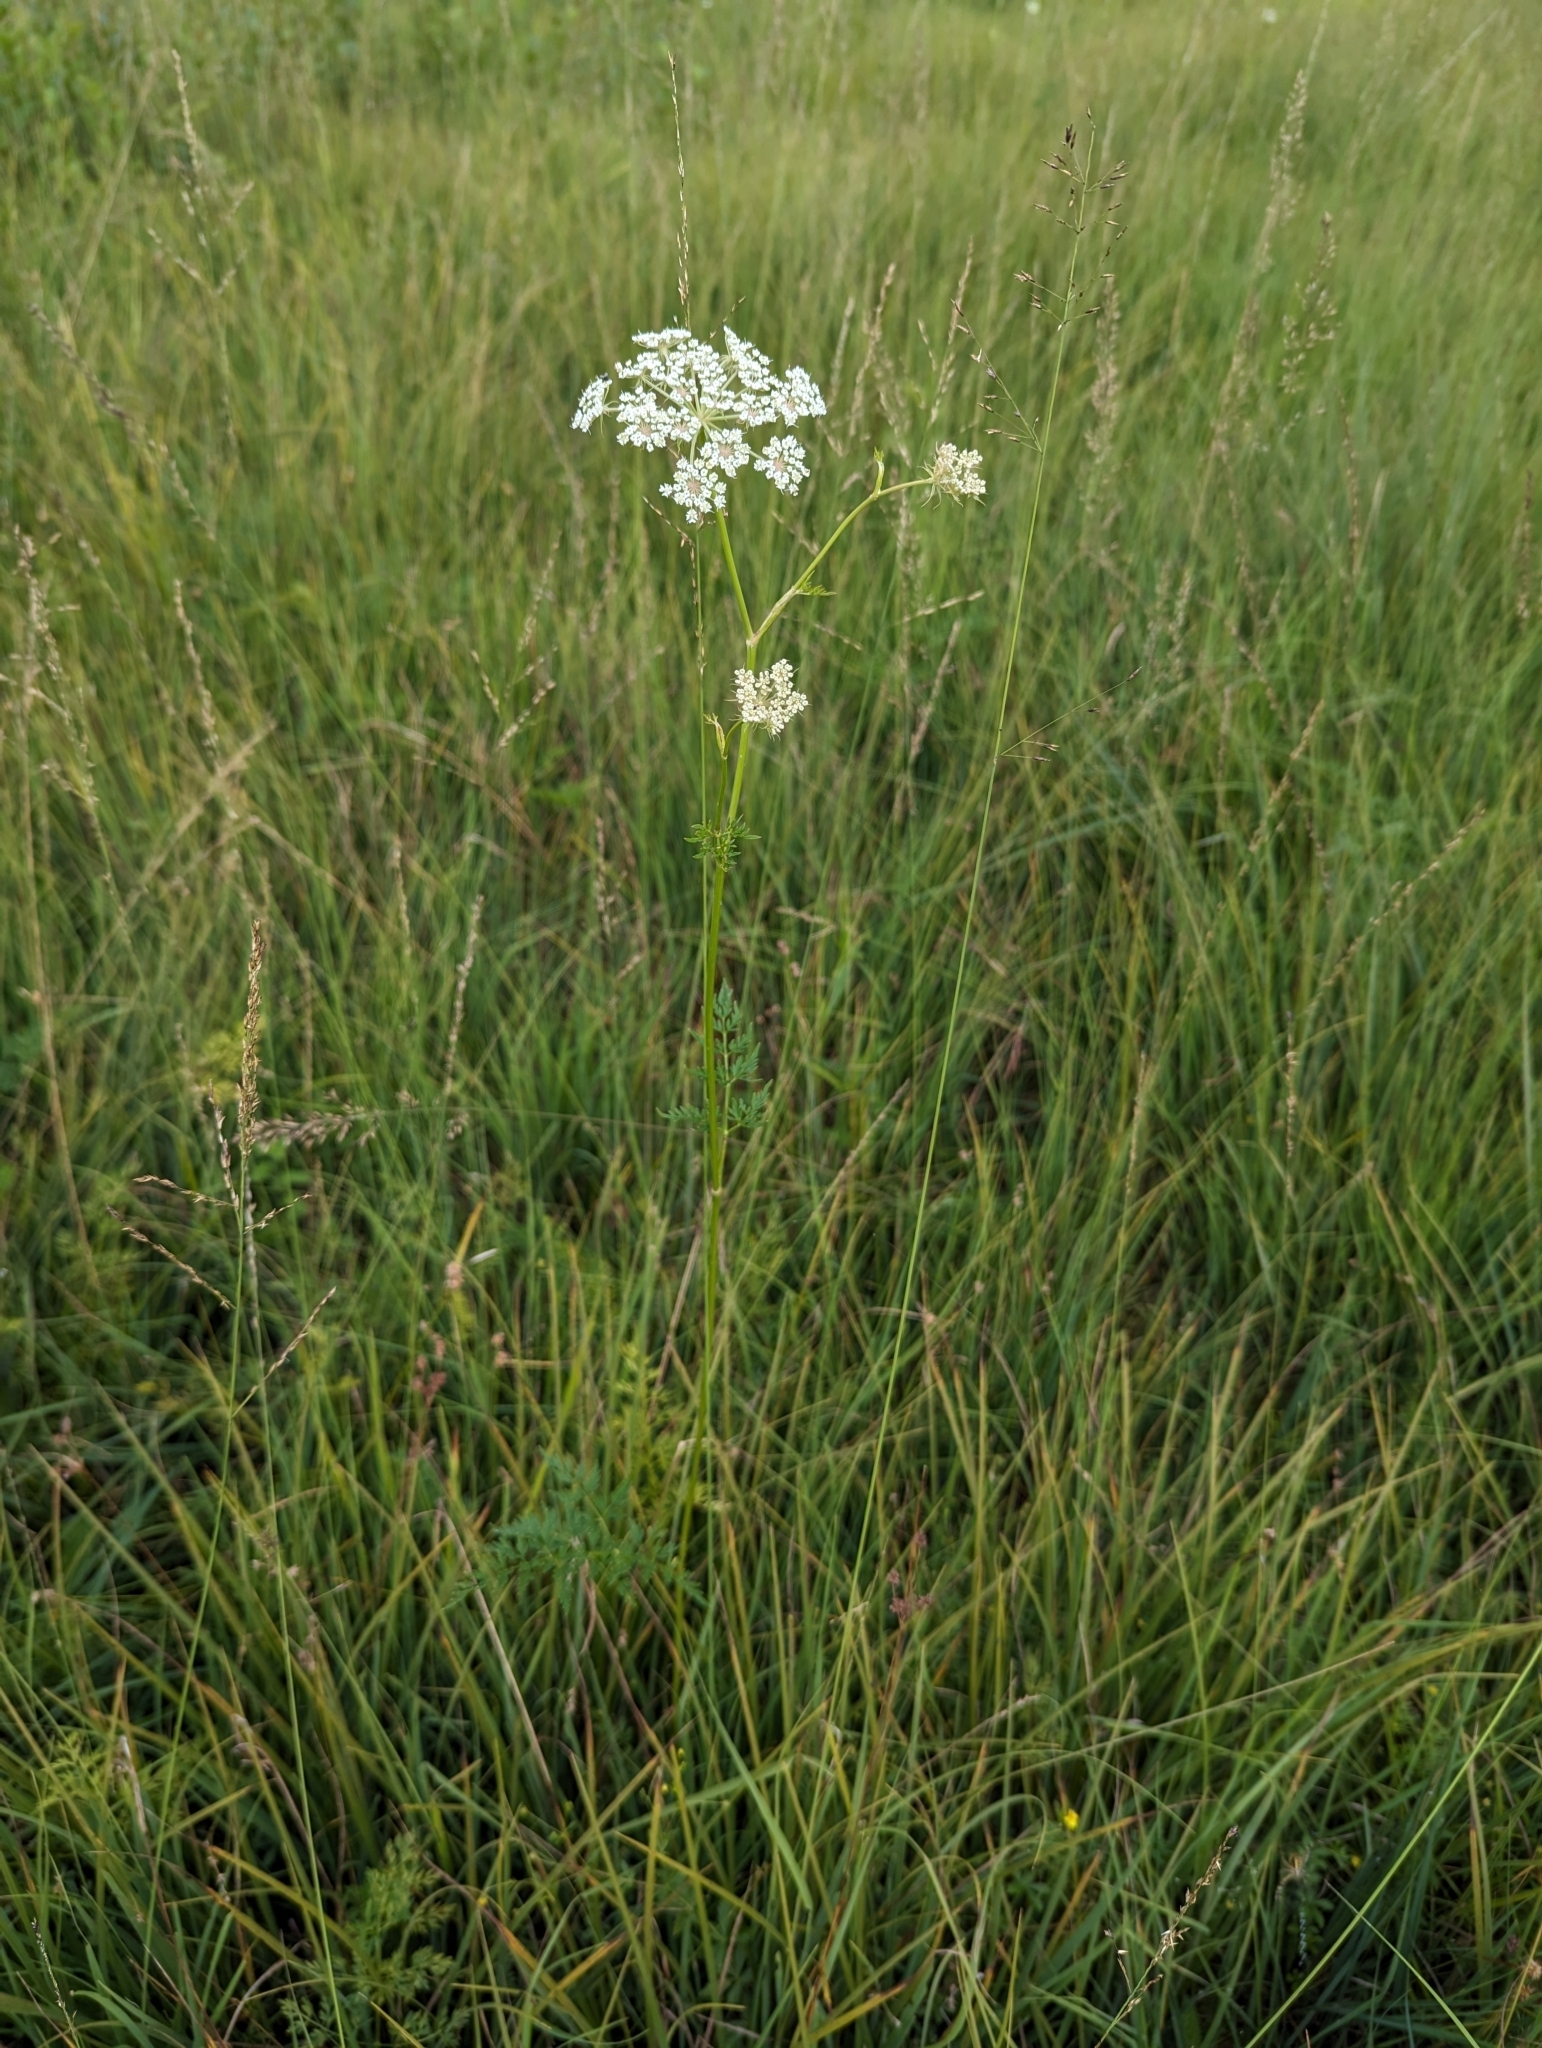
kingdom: Plantae
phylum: Tracheophyta
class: Magnoliopsida
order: Apiales
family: Apiaceae
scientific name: Apiaceae
